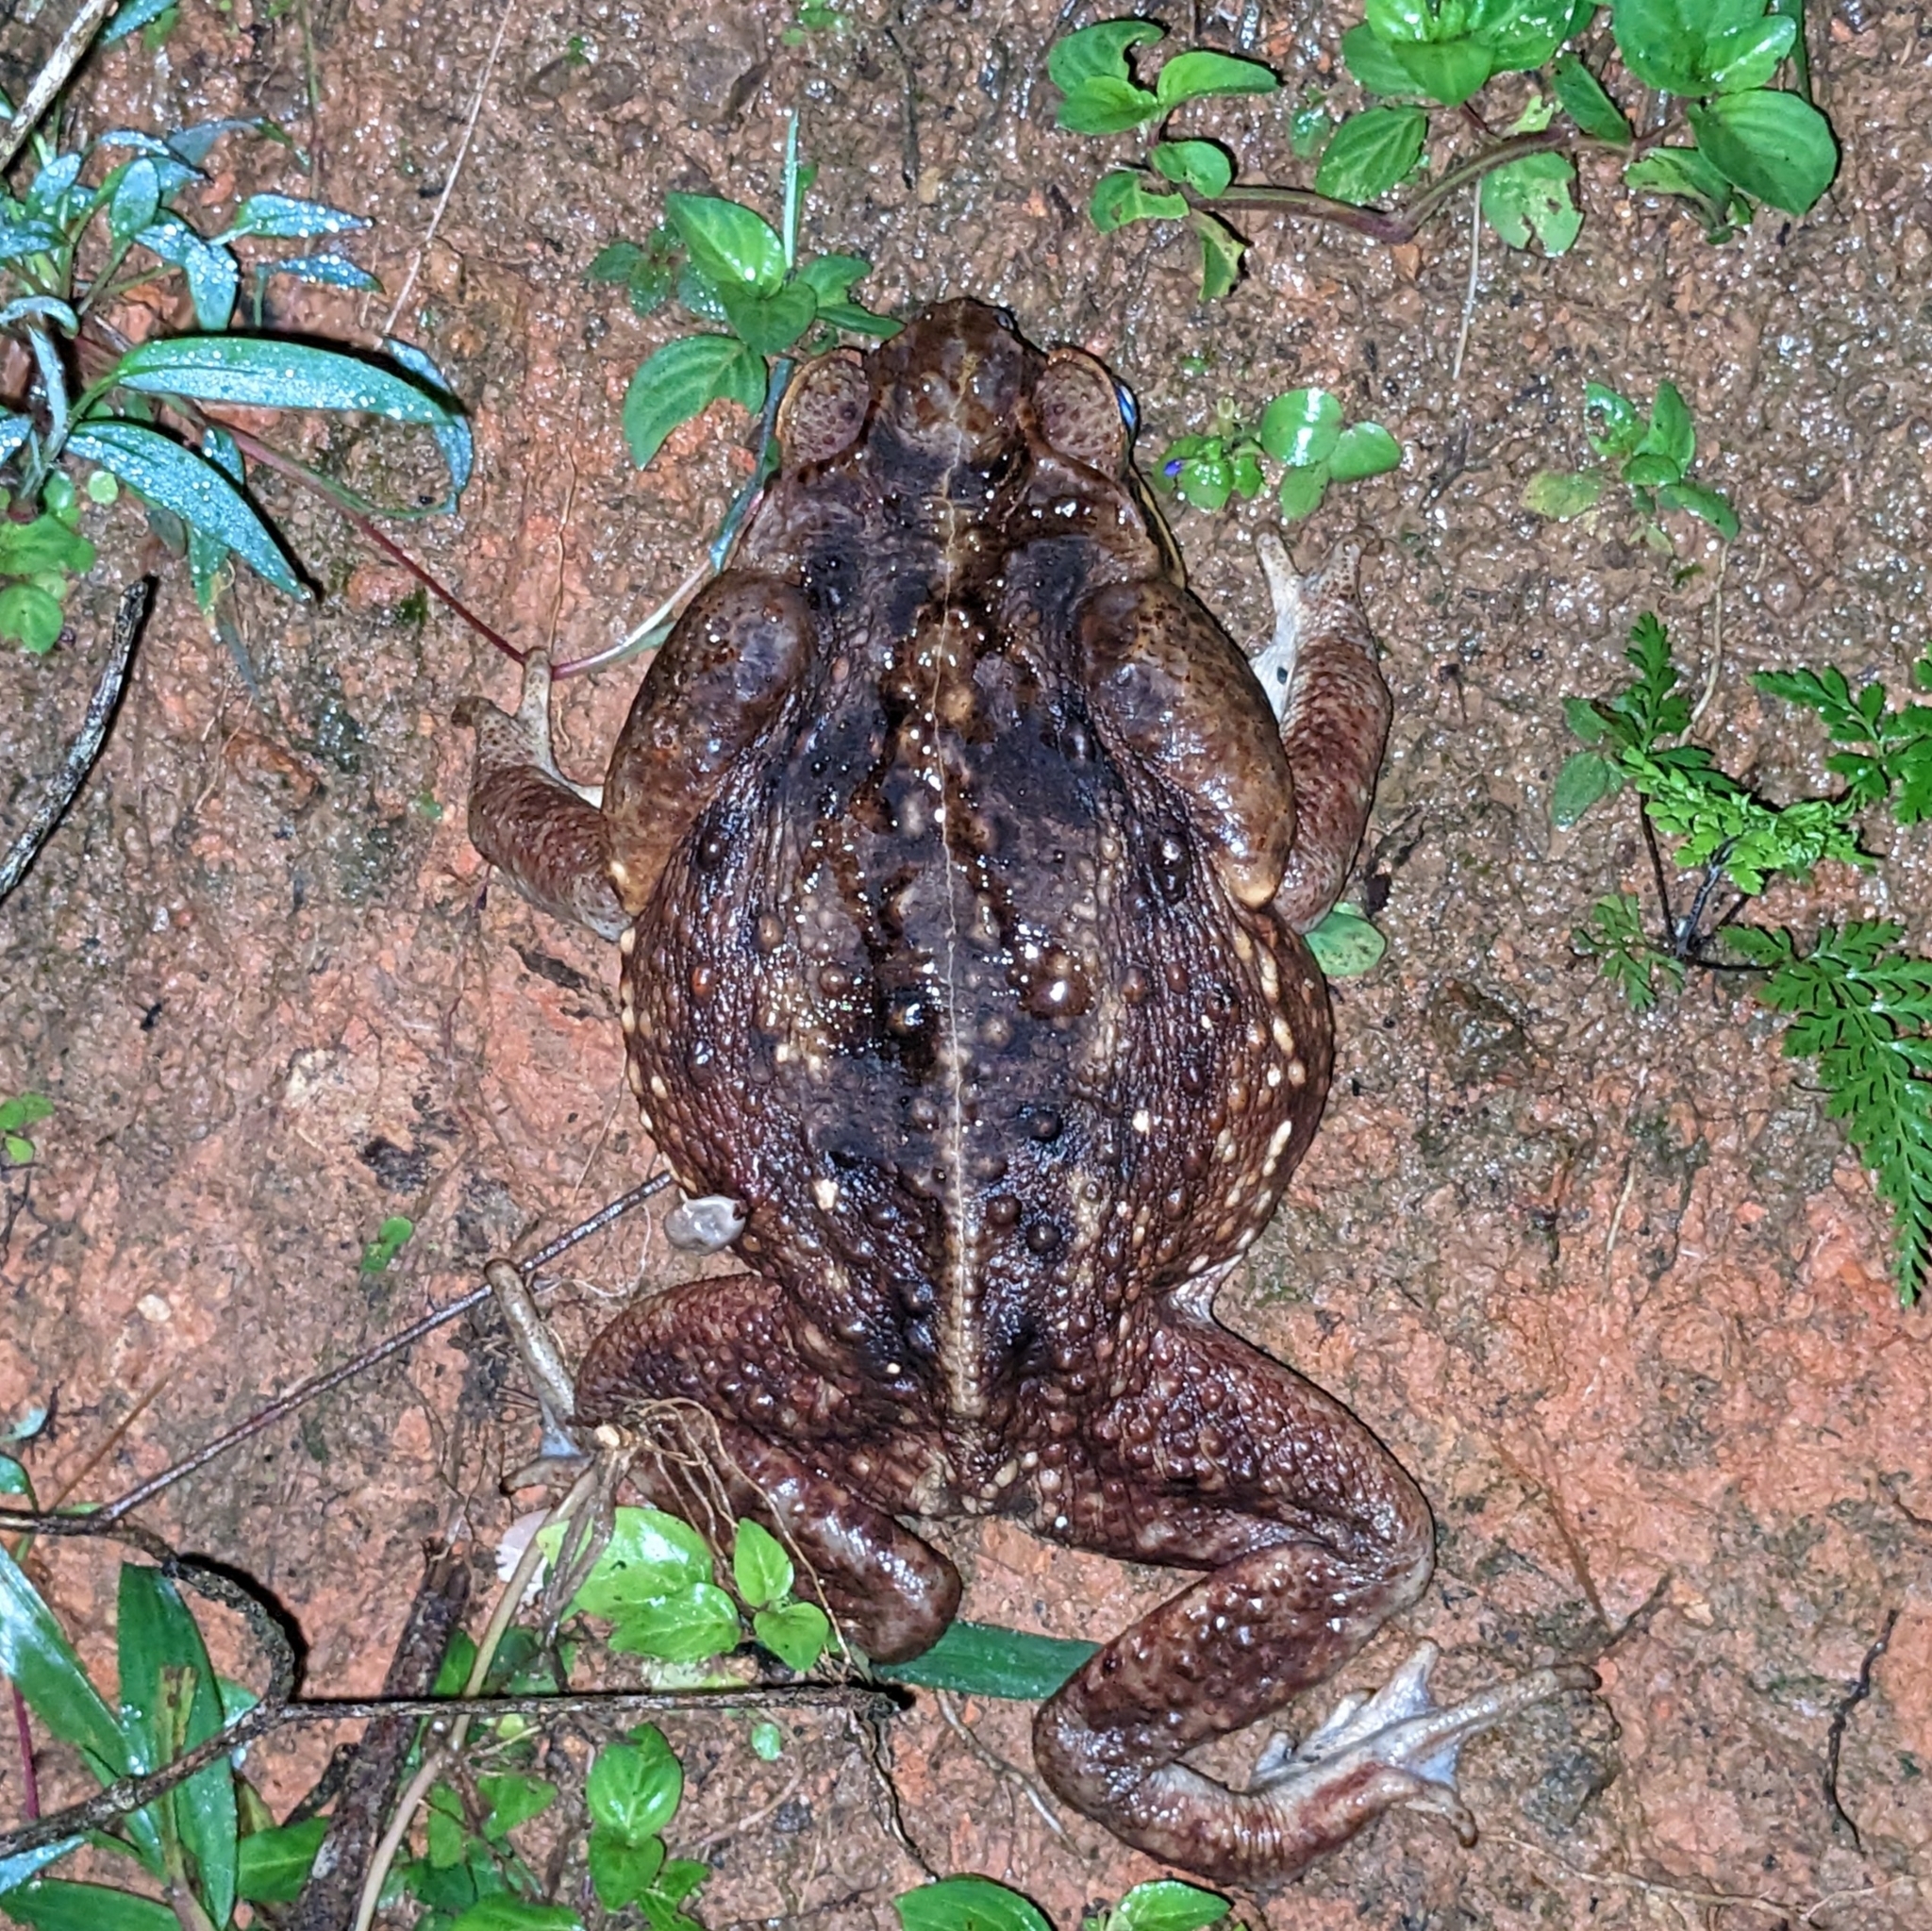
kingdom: Animalia
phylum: Chordata
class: Amphibia
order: Anura
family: Bufonidae
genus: Rhinella
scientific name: Rhinella horribilis
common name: Mesoamerican cane toad
